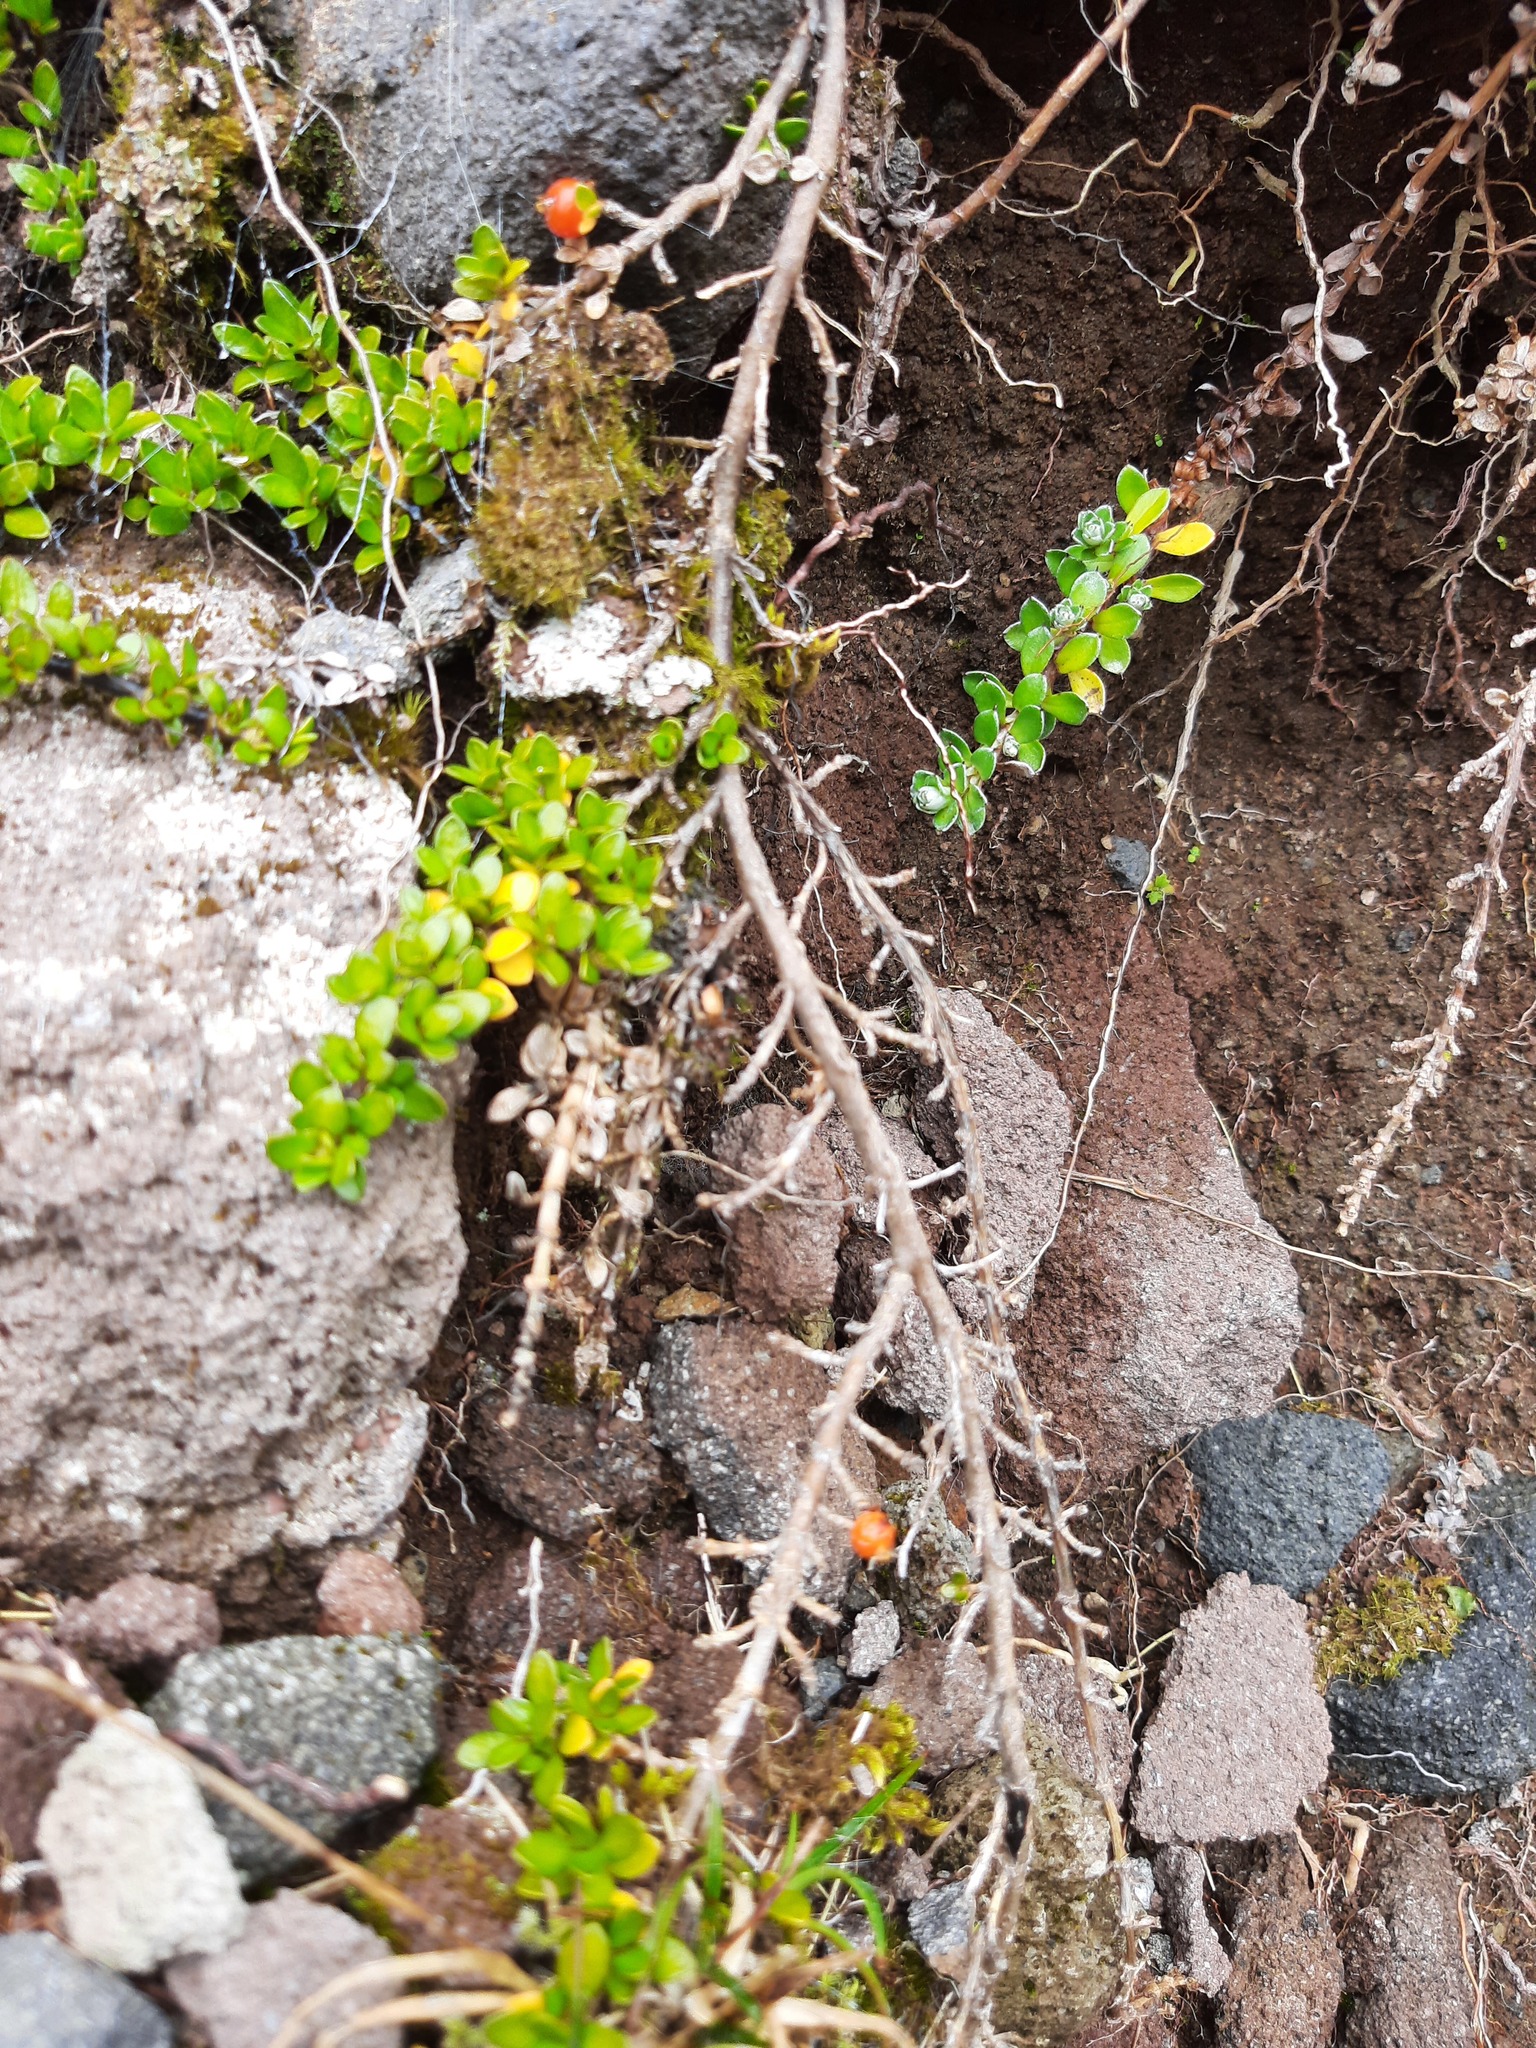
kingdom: Plantae
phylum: Tracheophyta
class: Magnoliopsida
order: Gentianales
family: Rubiaceae
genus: Coprosma
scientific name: Coprosma perpusilla
